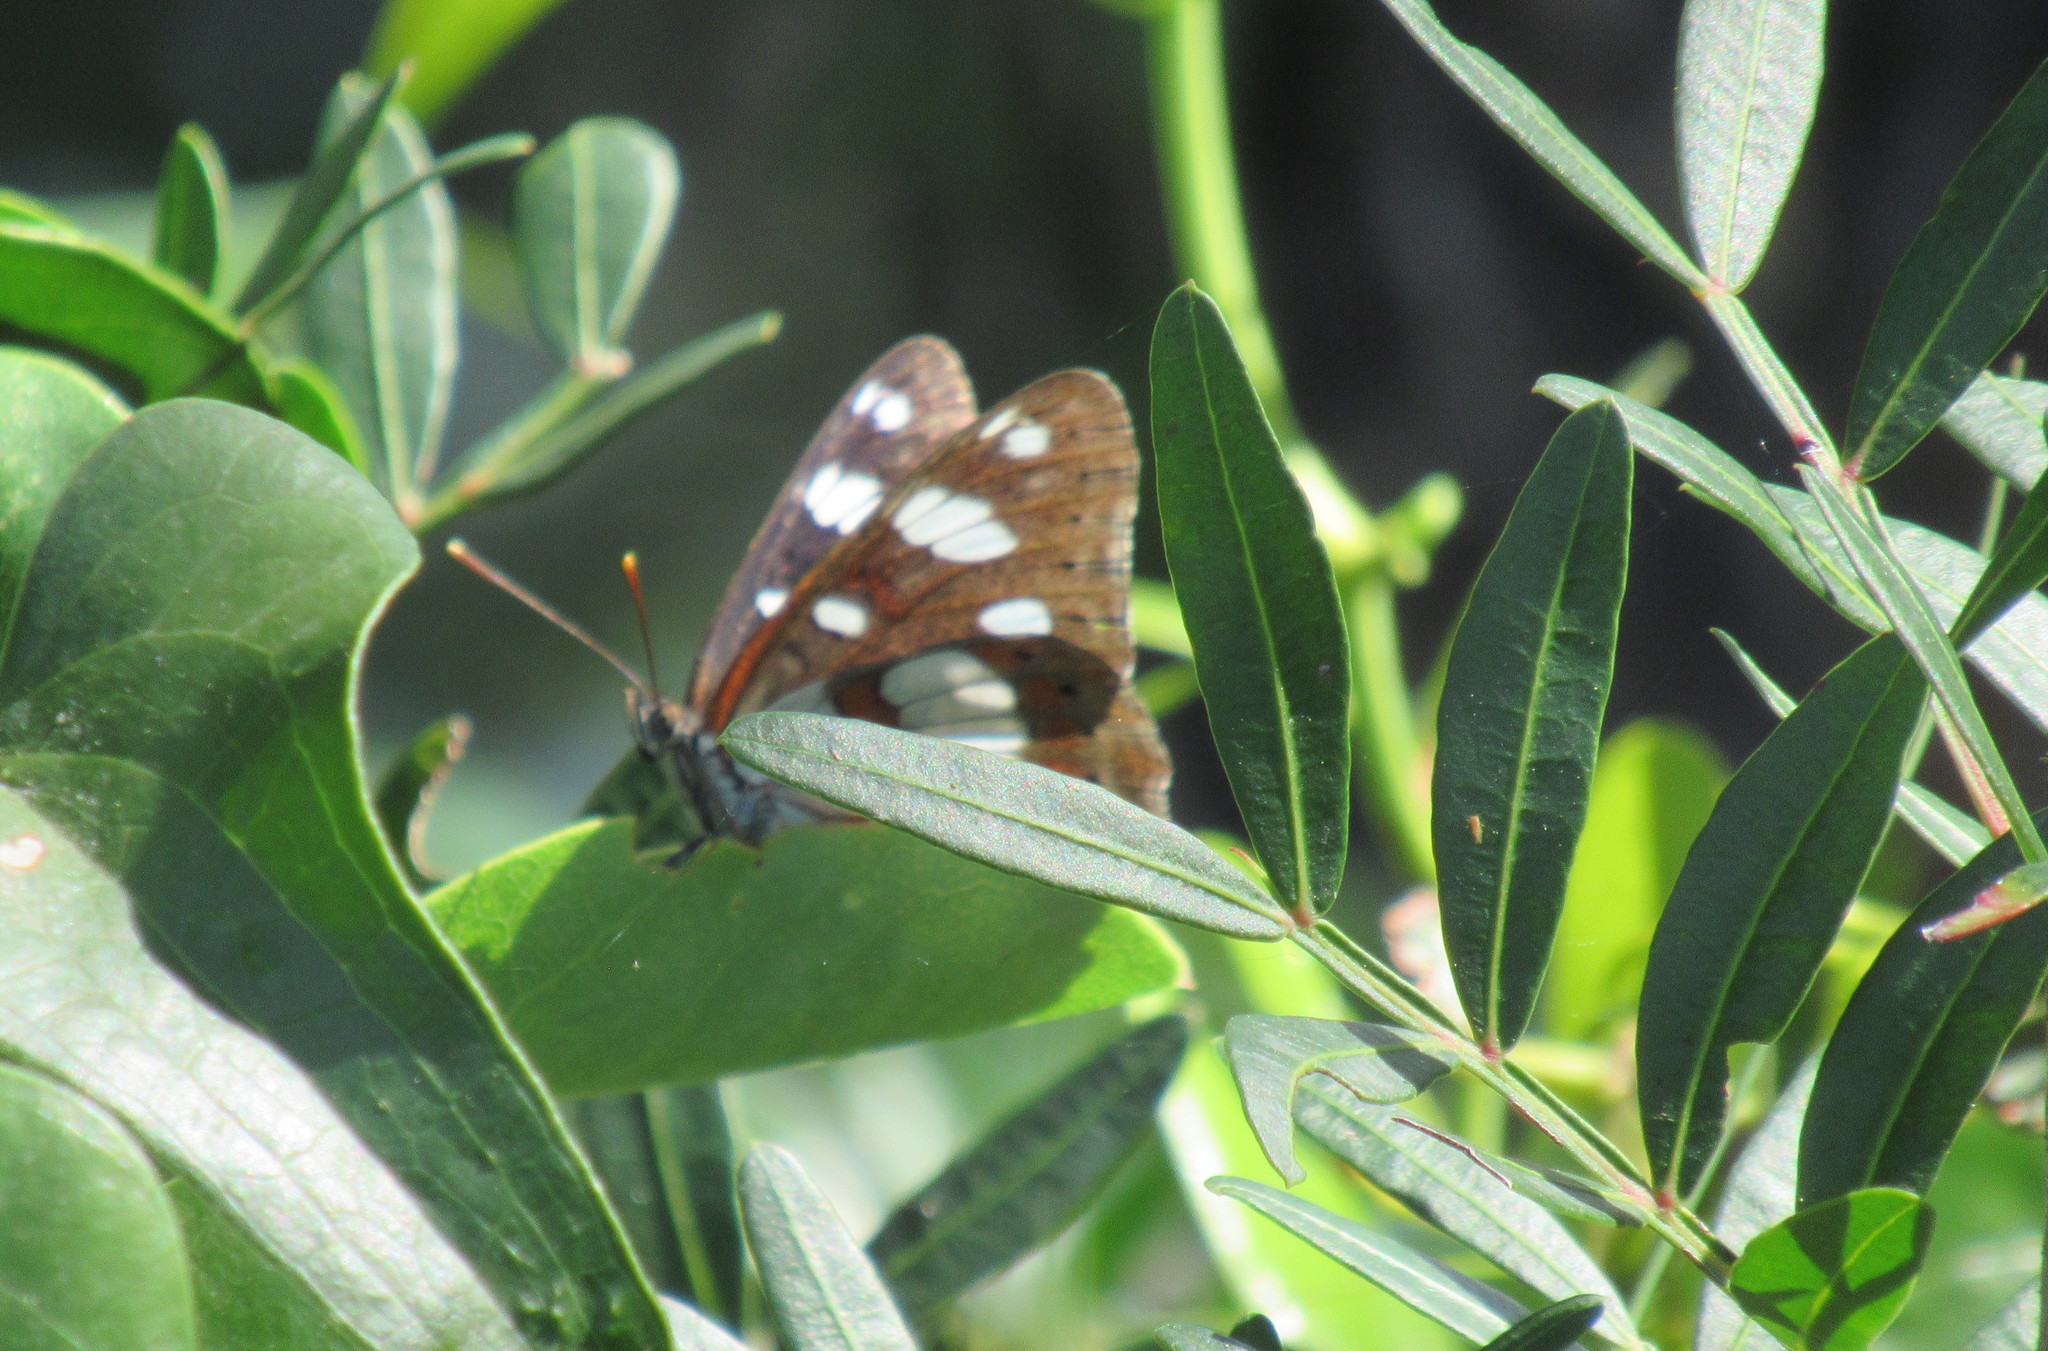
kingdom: Animalia
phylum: Arthropoda
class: Insecta
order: Lepidoptera
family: Nymphalidae
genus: Limenitis
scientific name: Limenitis reducta
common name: Southern white admiral
